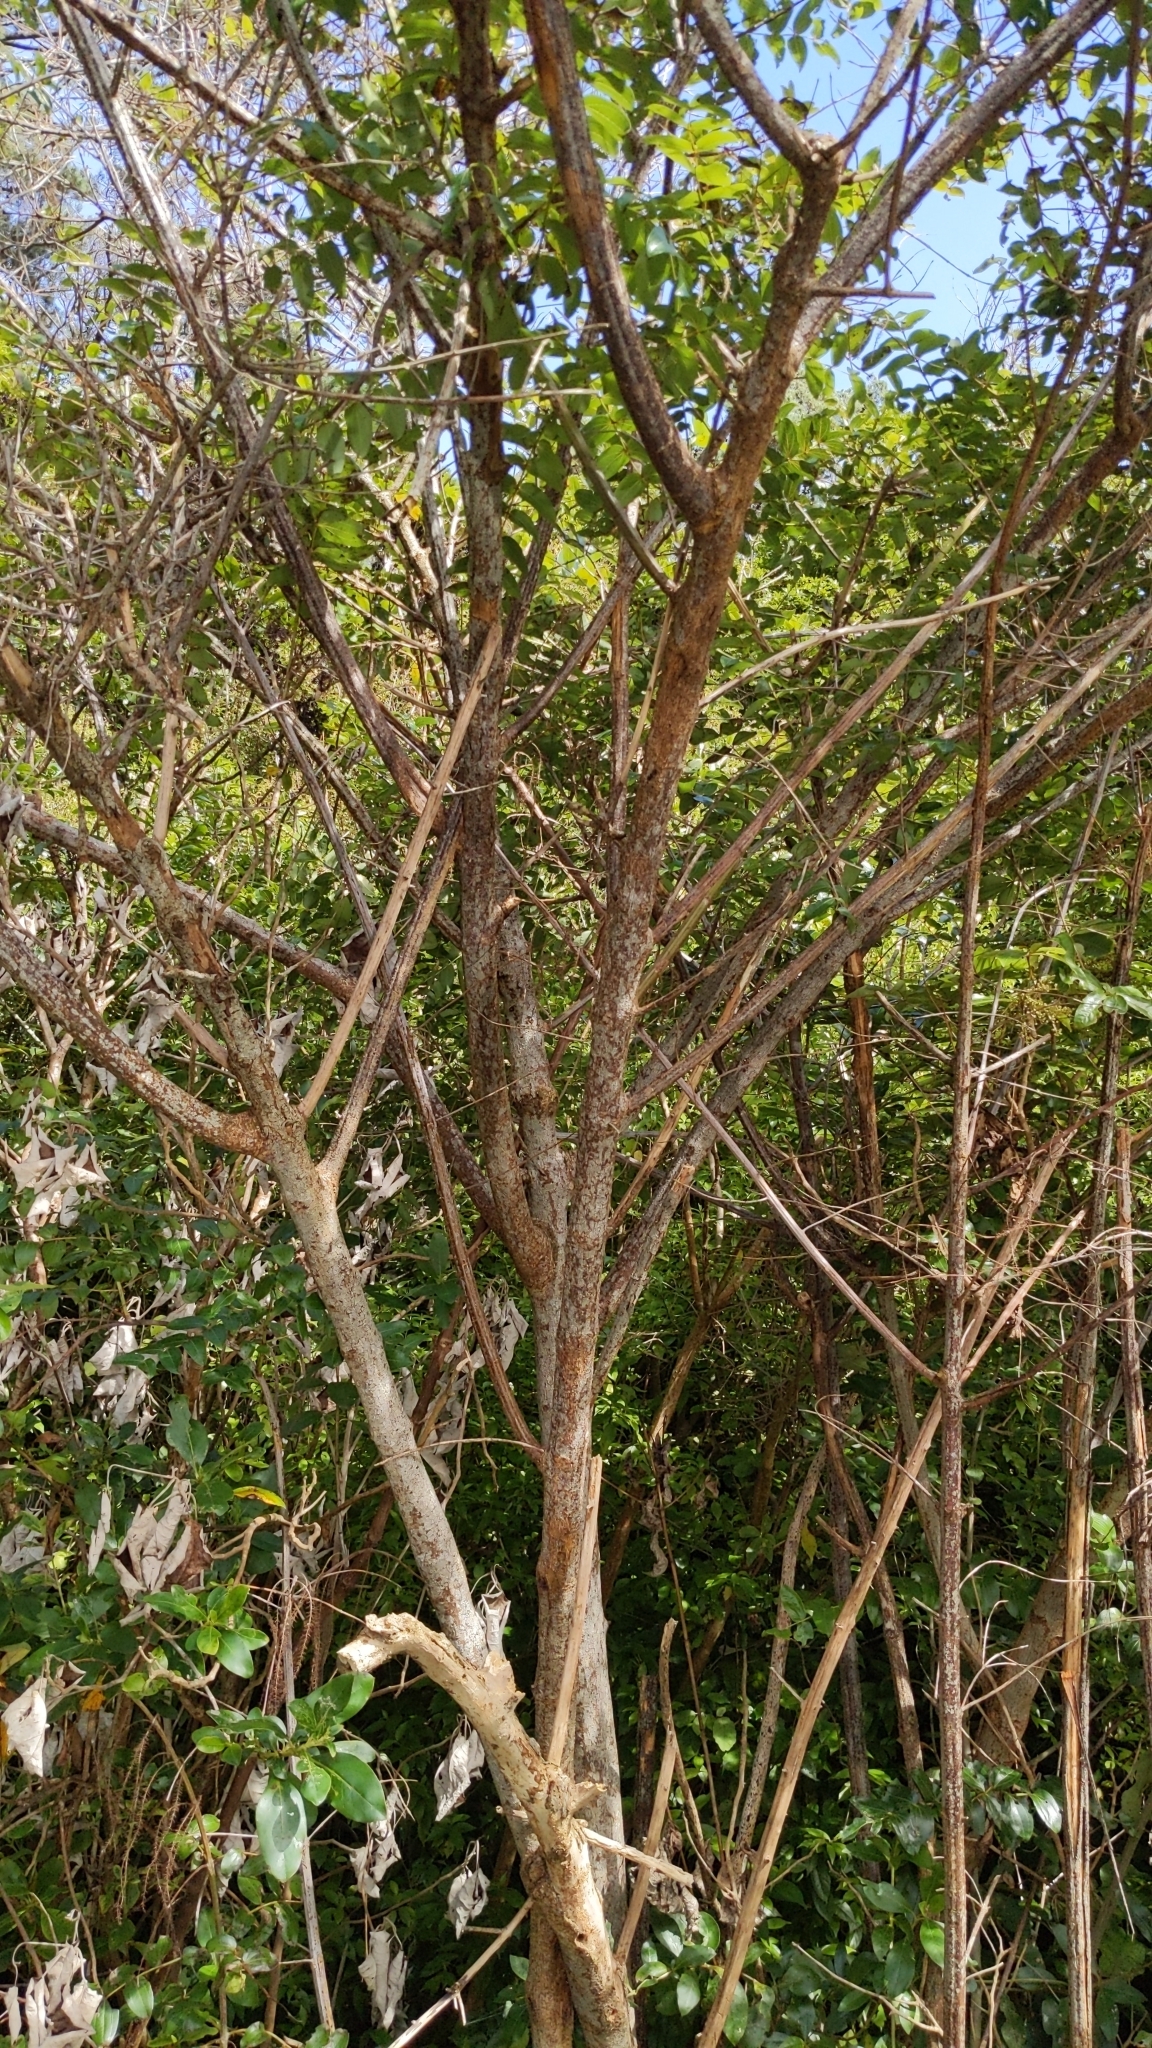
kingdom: Plantae
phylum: Tracheophyta
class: Magnoliopsida
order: Cucurbitales
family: Coriariaceae
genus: Coriaria
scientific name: Coriaria arborea
